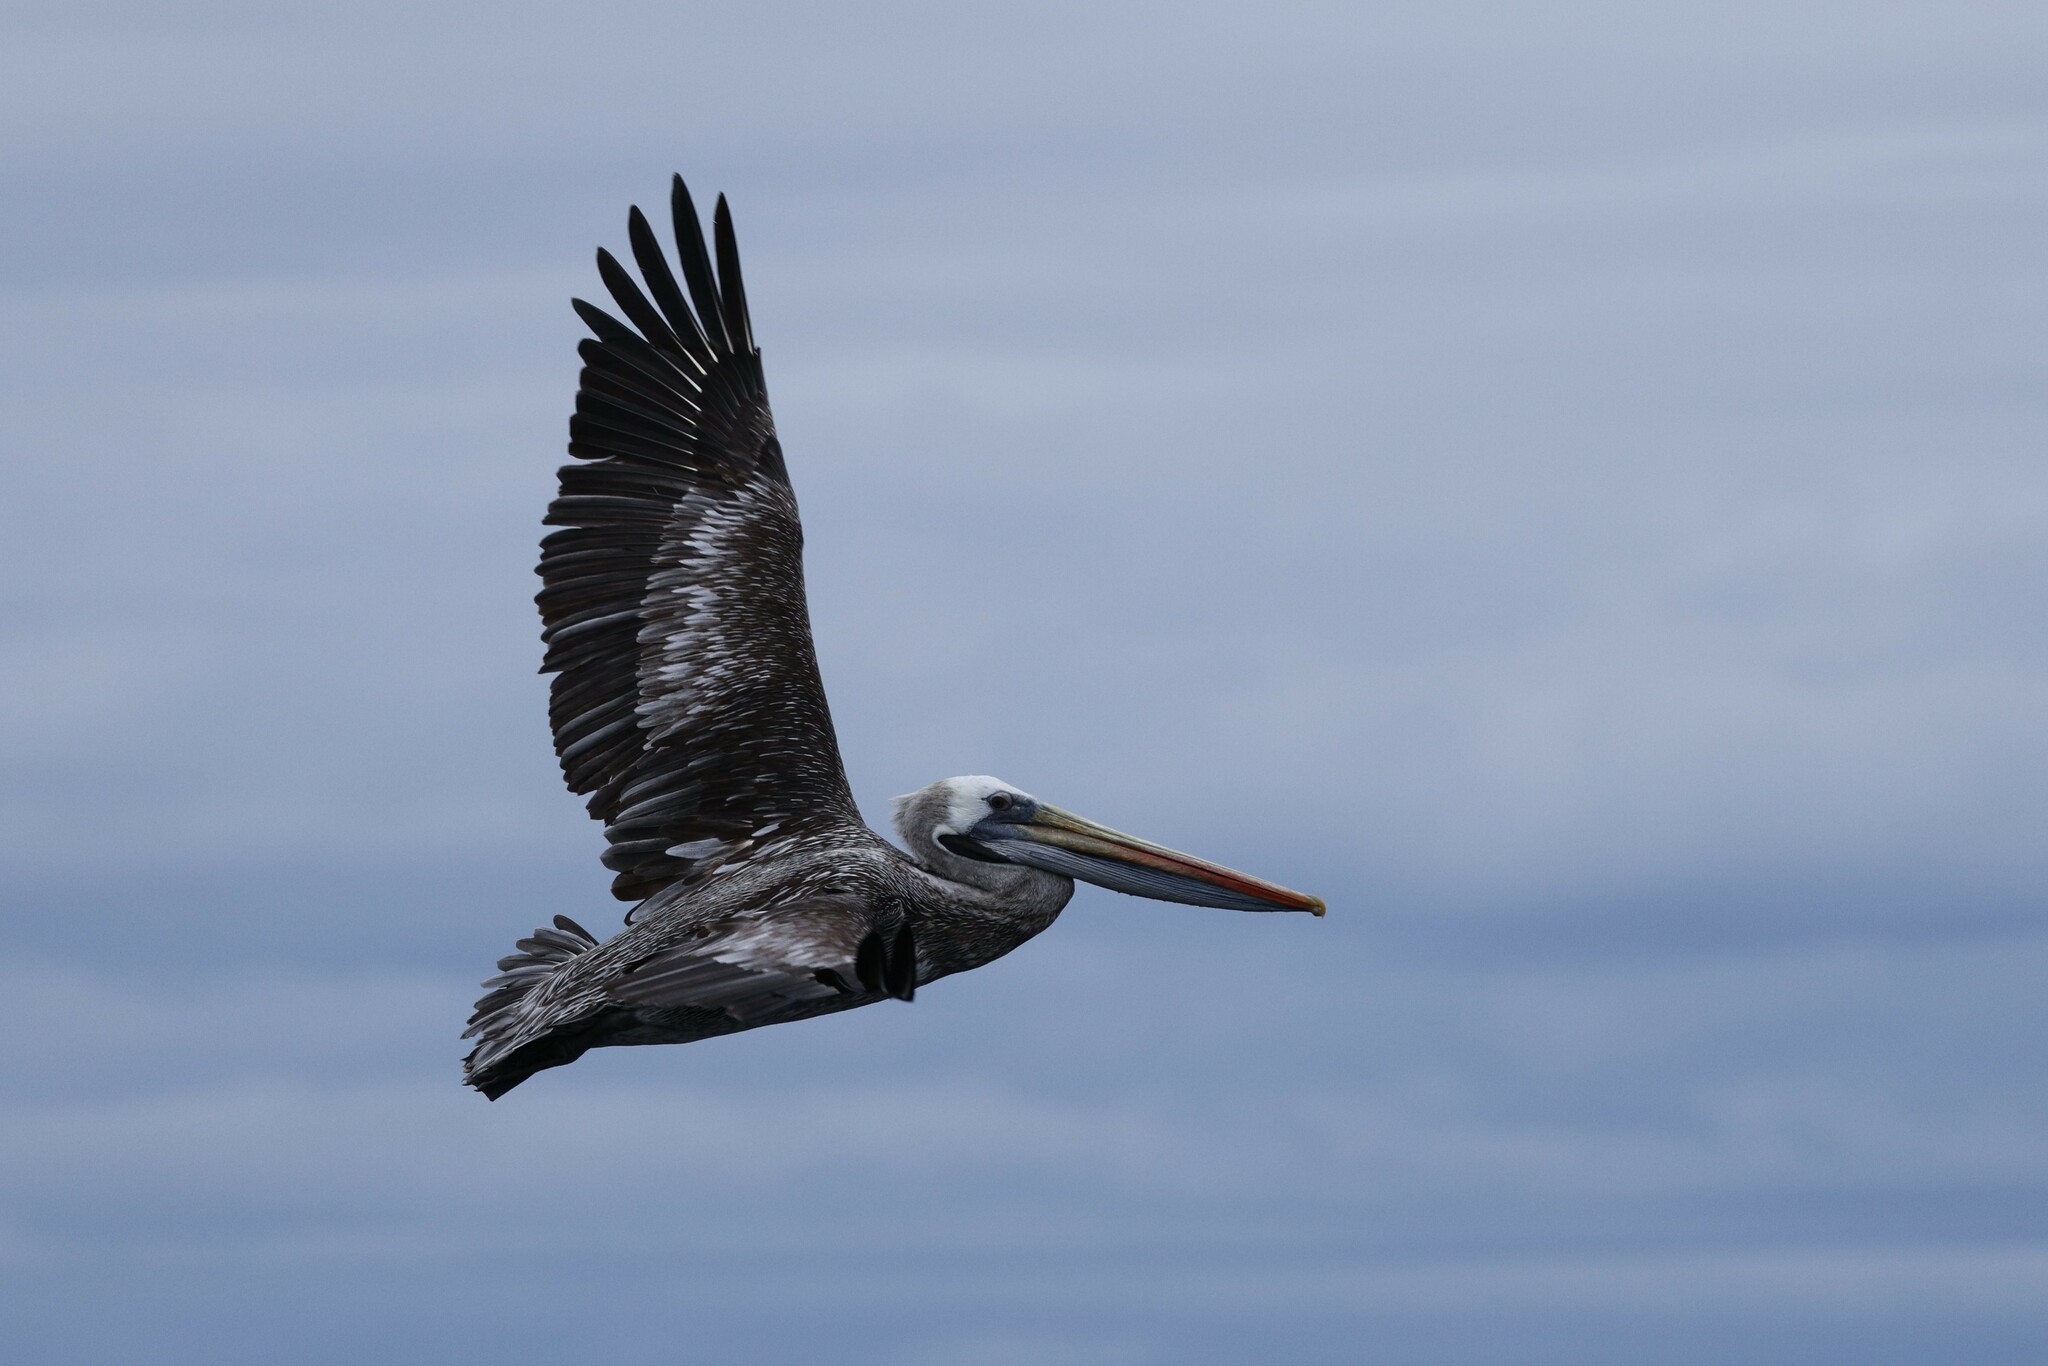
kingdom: Animalia
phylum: Chordata
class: Aves
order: Pelecaniformes
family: Pelecanidae
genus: Pelecanus
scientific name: Pelecanus thagus
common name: Peruvian pelican
